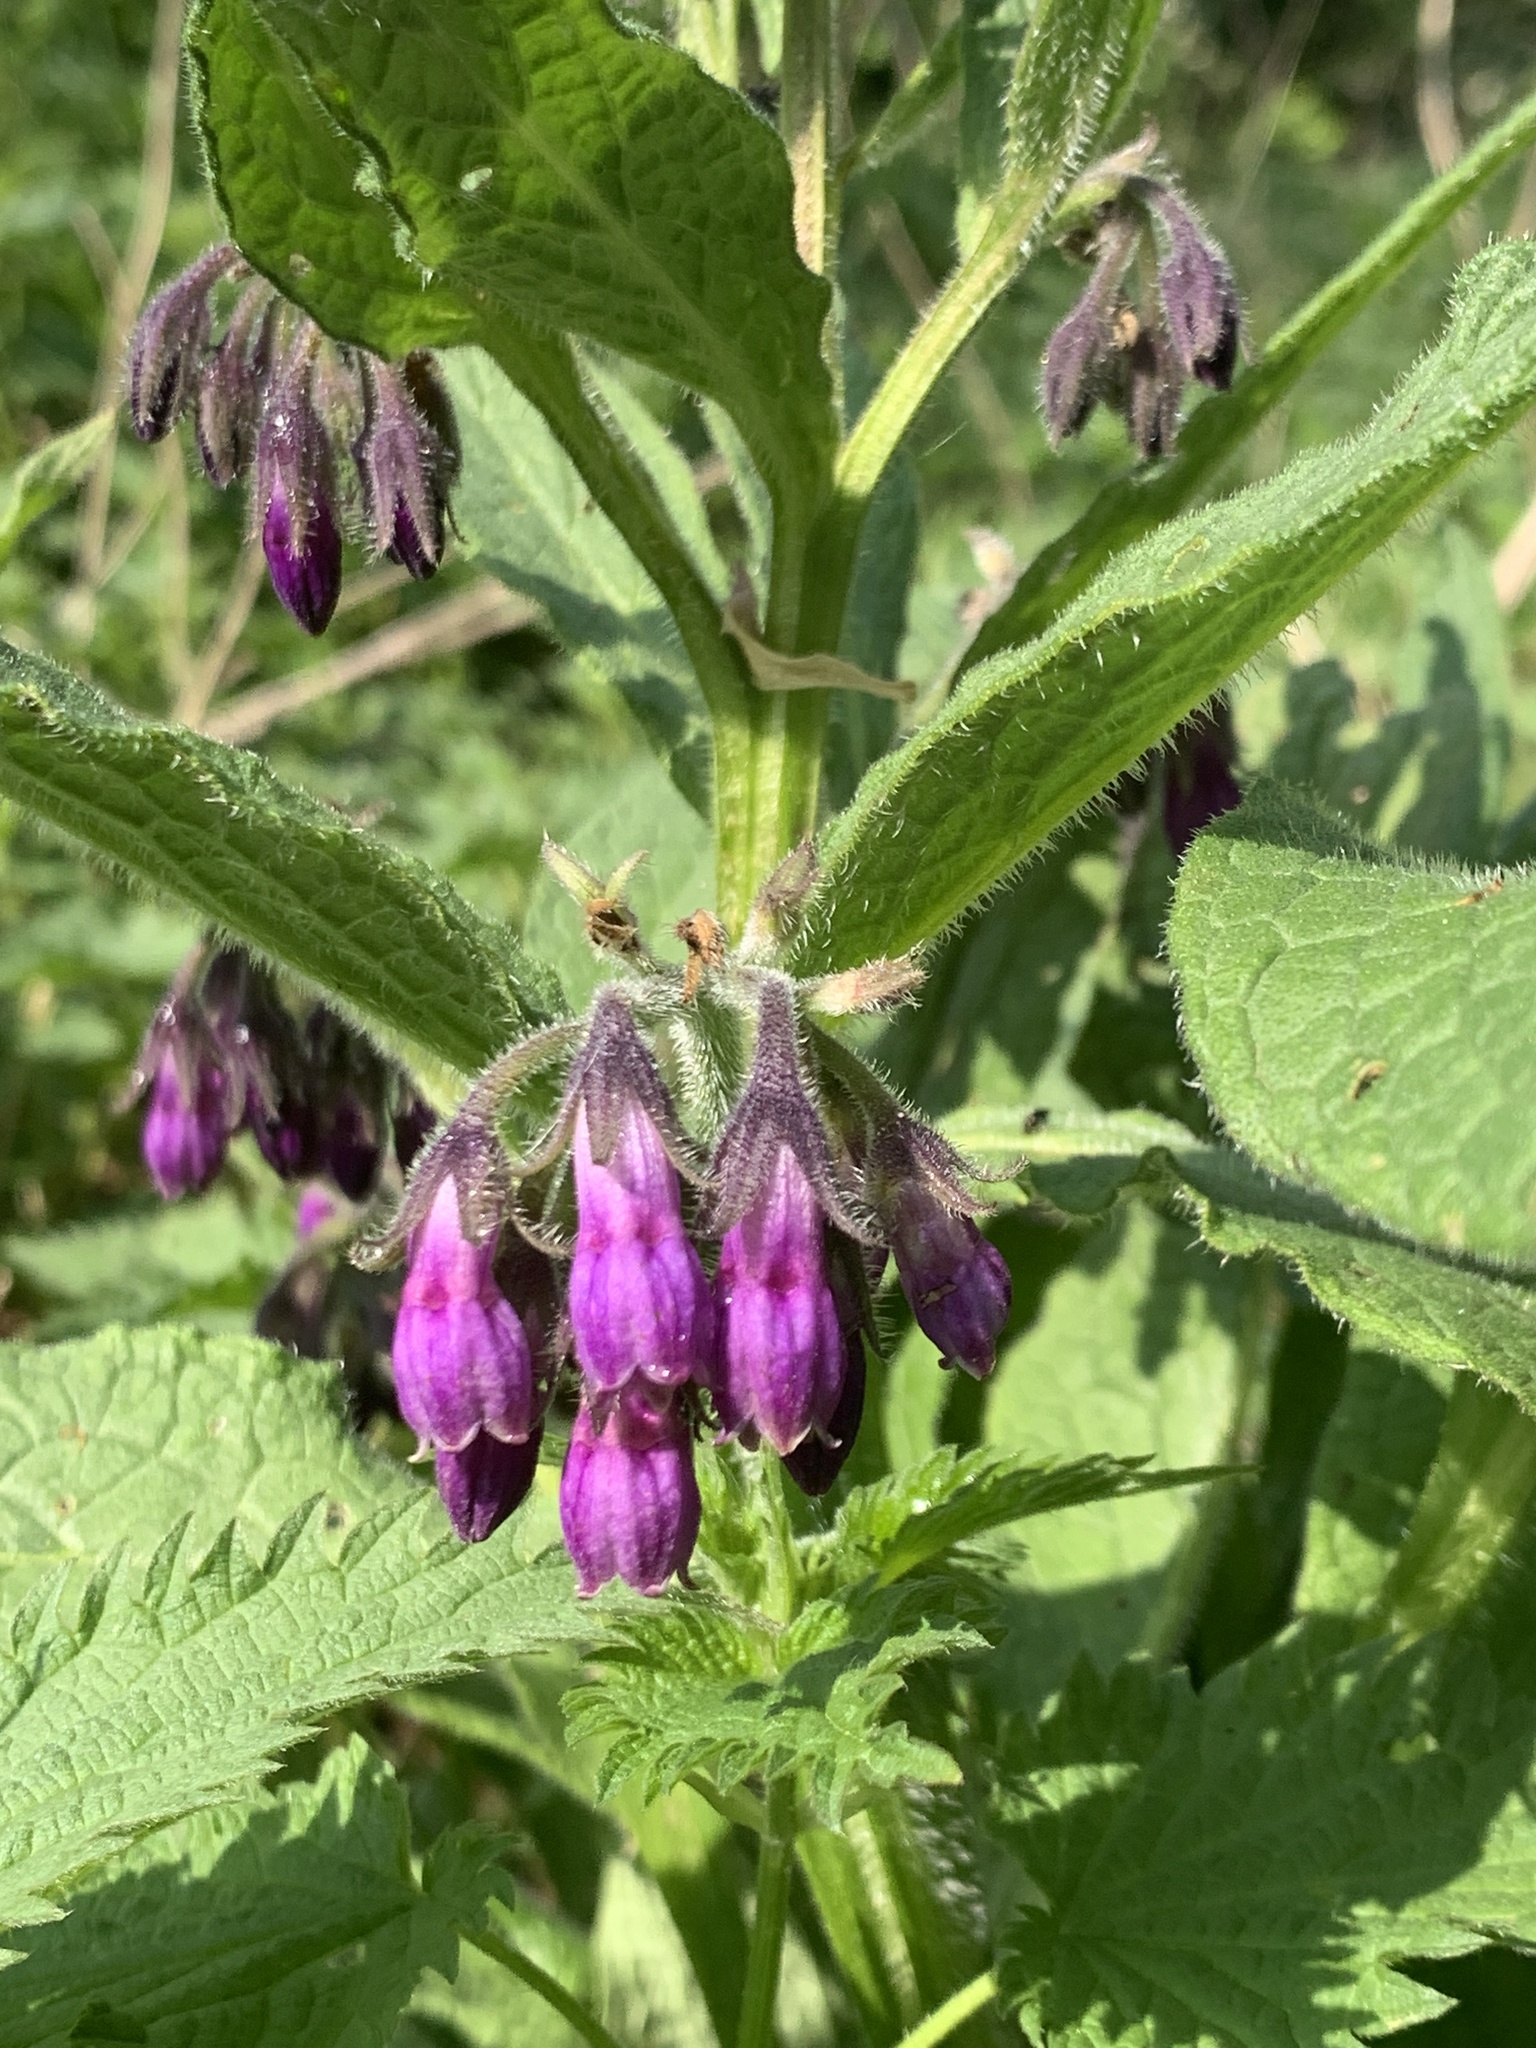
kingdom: Plantae
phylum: Tracheophyta
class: Magnoliopsida
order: Boraginales
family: Boraginaceae
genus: Symphytum
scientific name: Symphytum officinale
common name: Common comfrey
